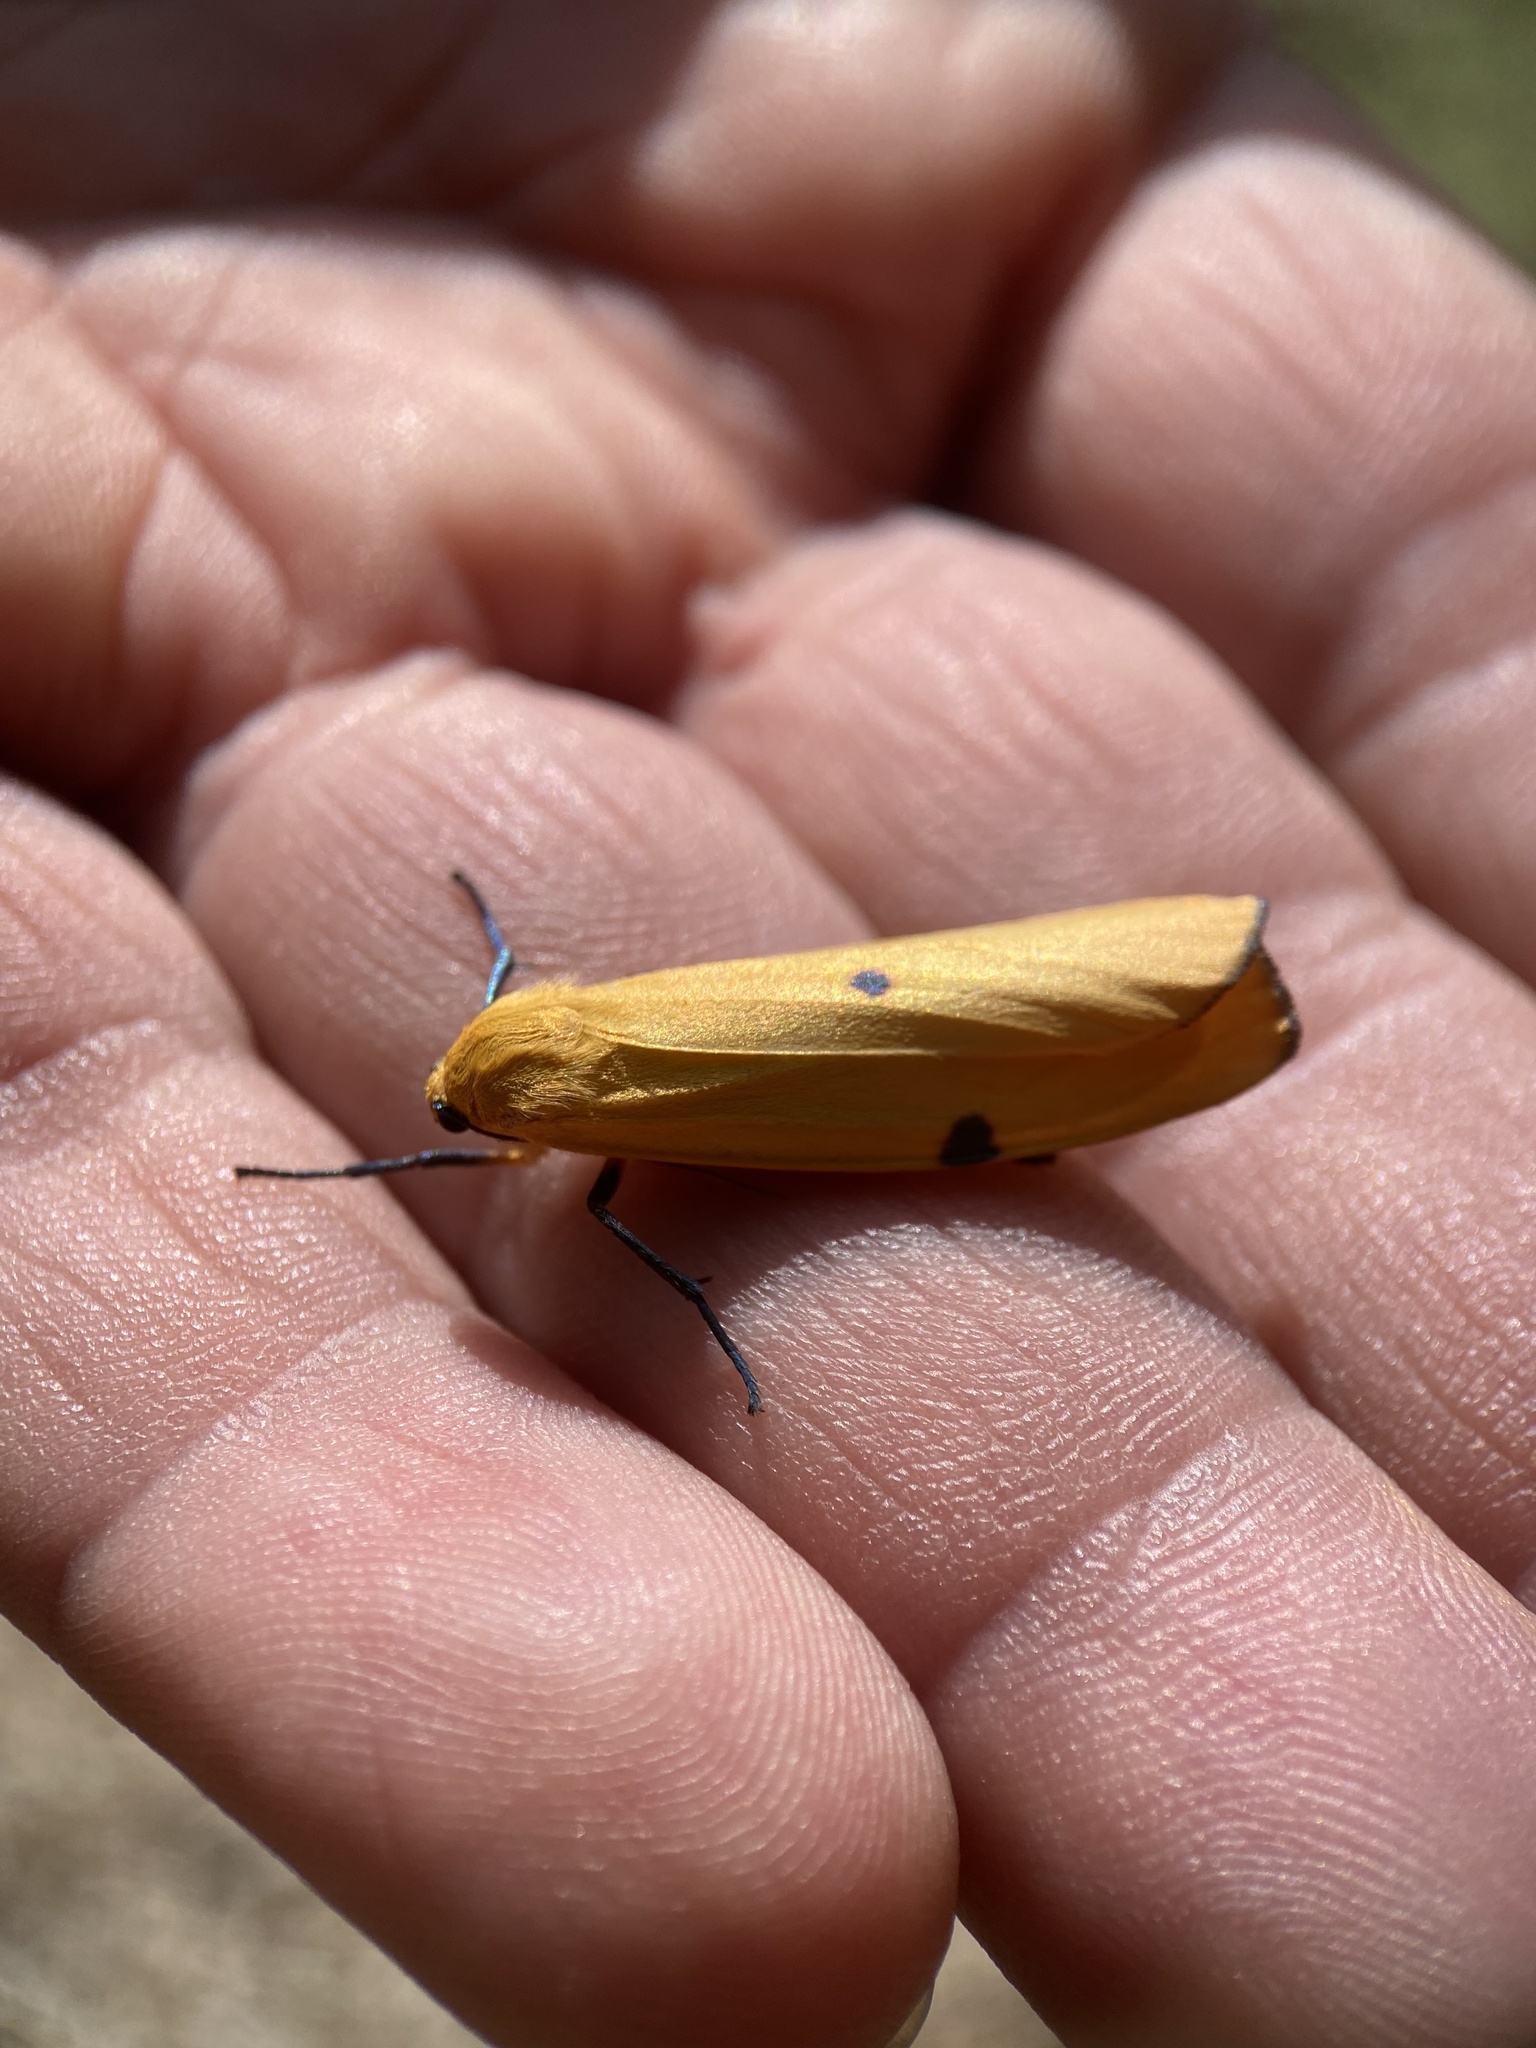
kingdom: Animalia
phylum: Arthropoda
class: Insecta
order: Lepidoptera
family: Erebidae
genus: Lithosia
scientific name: Lithosia quadra
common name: Four-spotted footman
